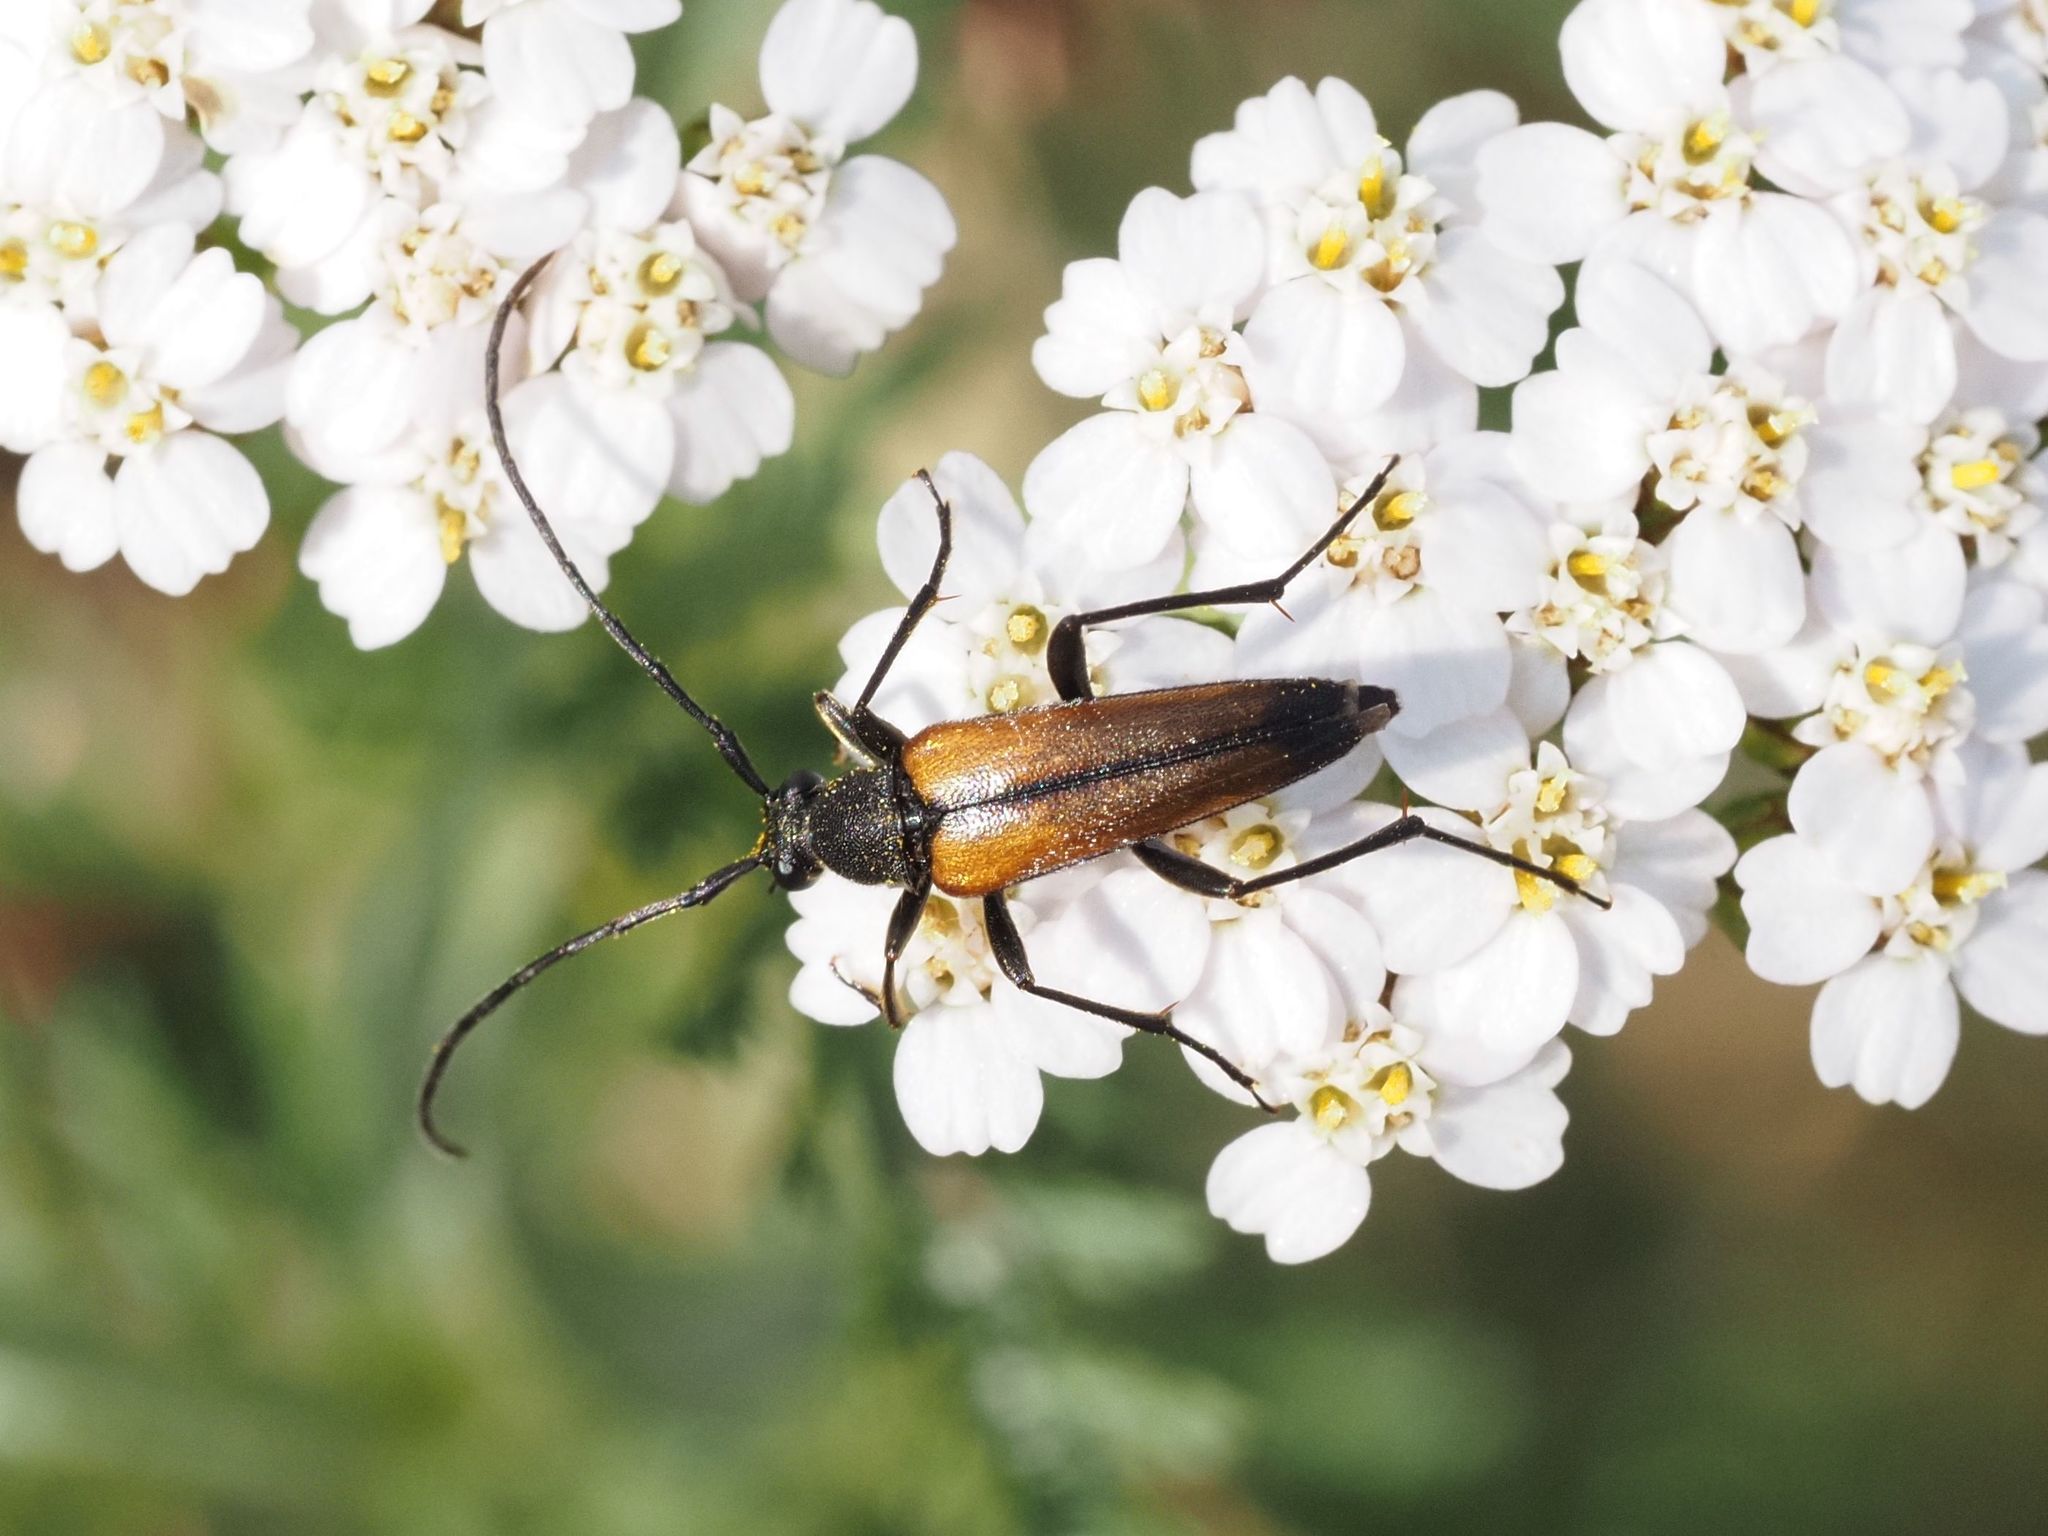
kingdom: Animalia
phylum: Arthropoda
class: Insecta
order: Coleoptera
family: Cerambycidae
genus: Stenurella
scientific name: Stenurella melanura
